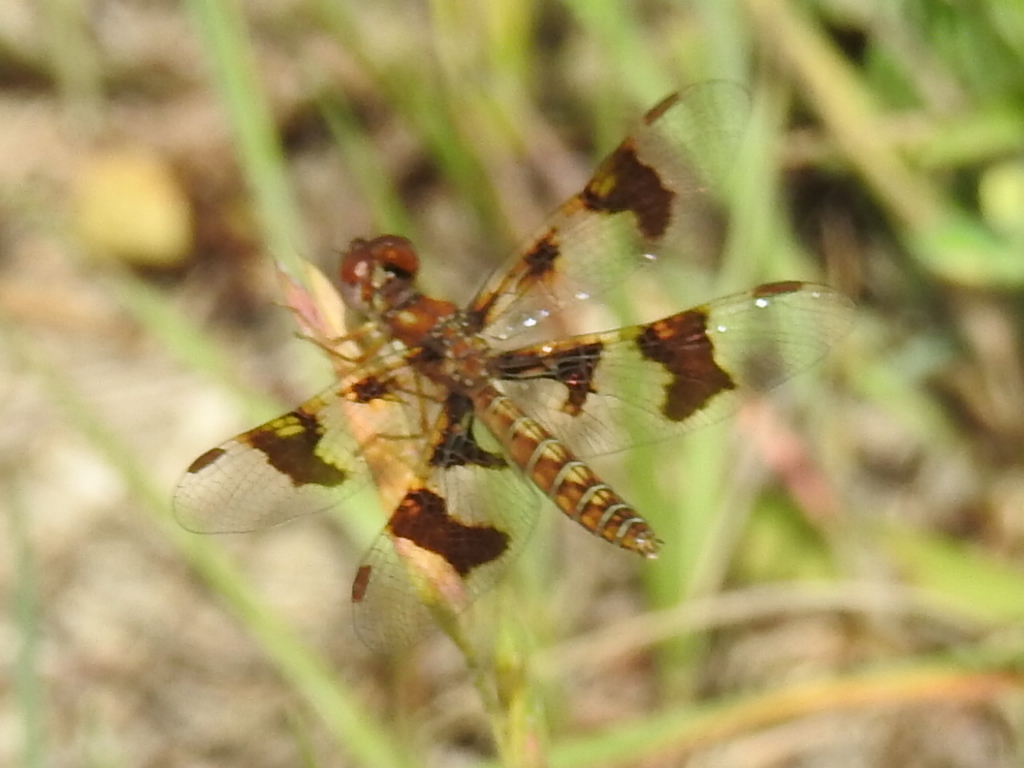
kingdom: Animalia
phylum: Arthropoda
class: Insecta
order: Odonata
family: Libellulidae
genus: Perithemis
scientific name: Perithemis tenera
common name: Eastern amberwing
